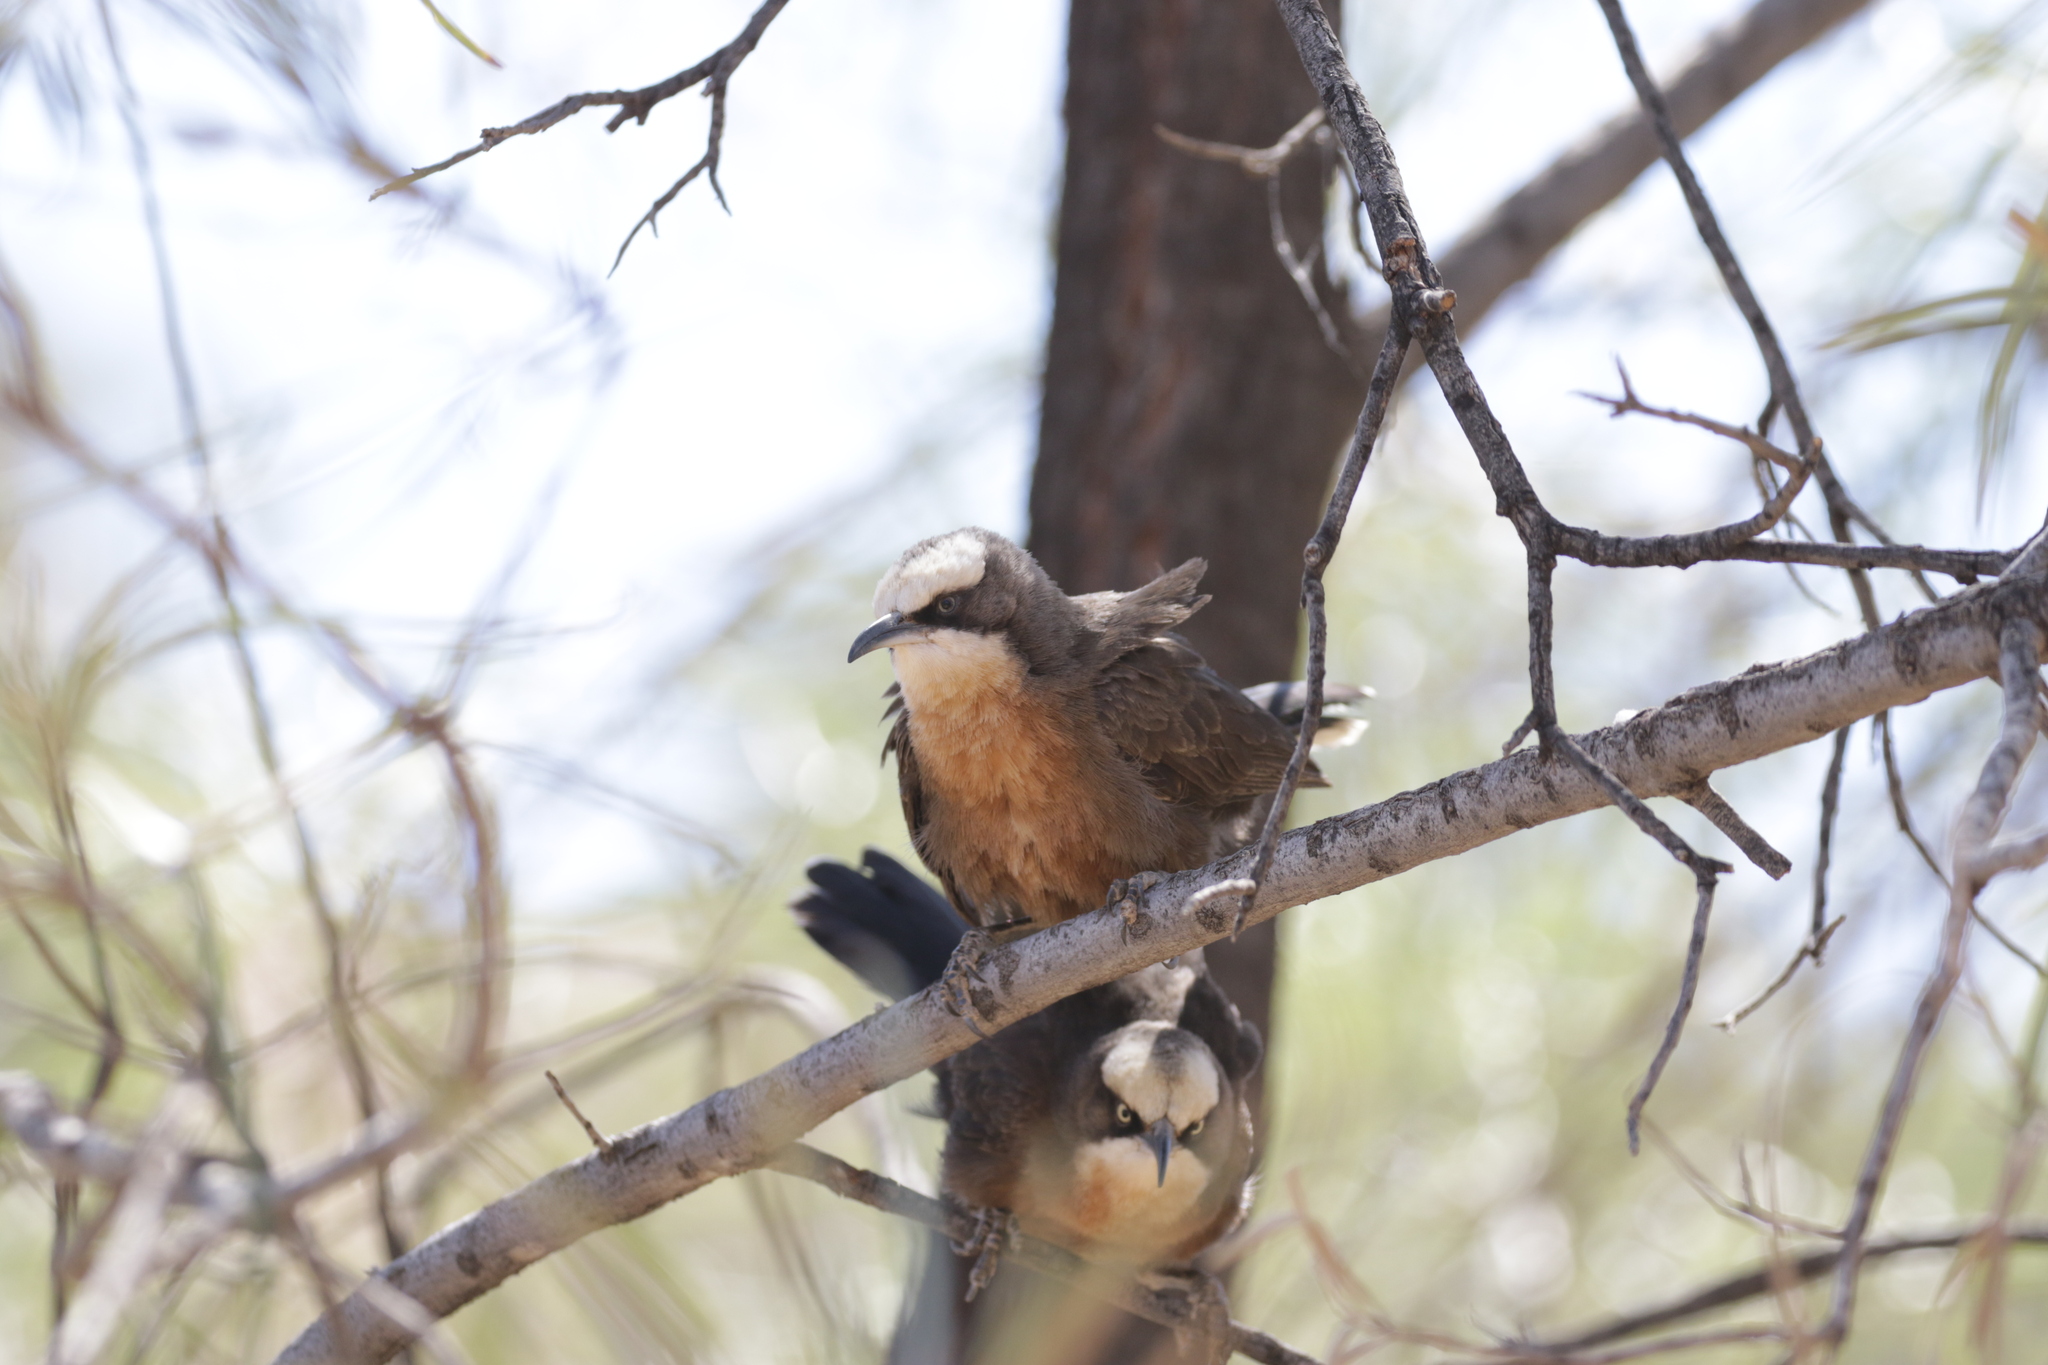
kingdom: Animalia
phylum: Chordata
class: Aves
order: Passeriformes
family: Pomatostomidae
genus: Pomatostomus
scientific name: Pomatostomus temporalis
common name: Grey-crowned babbler
